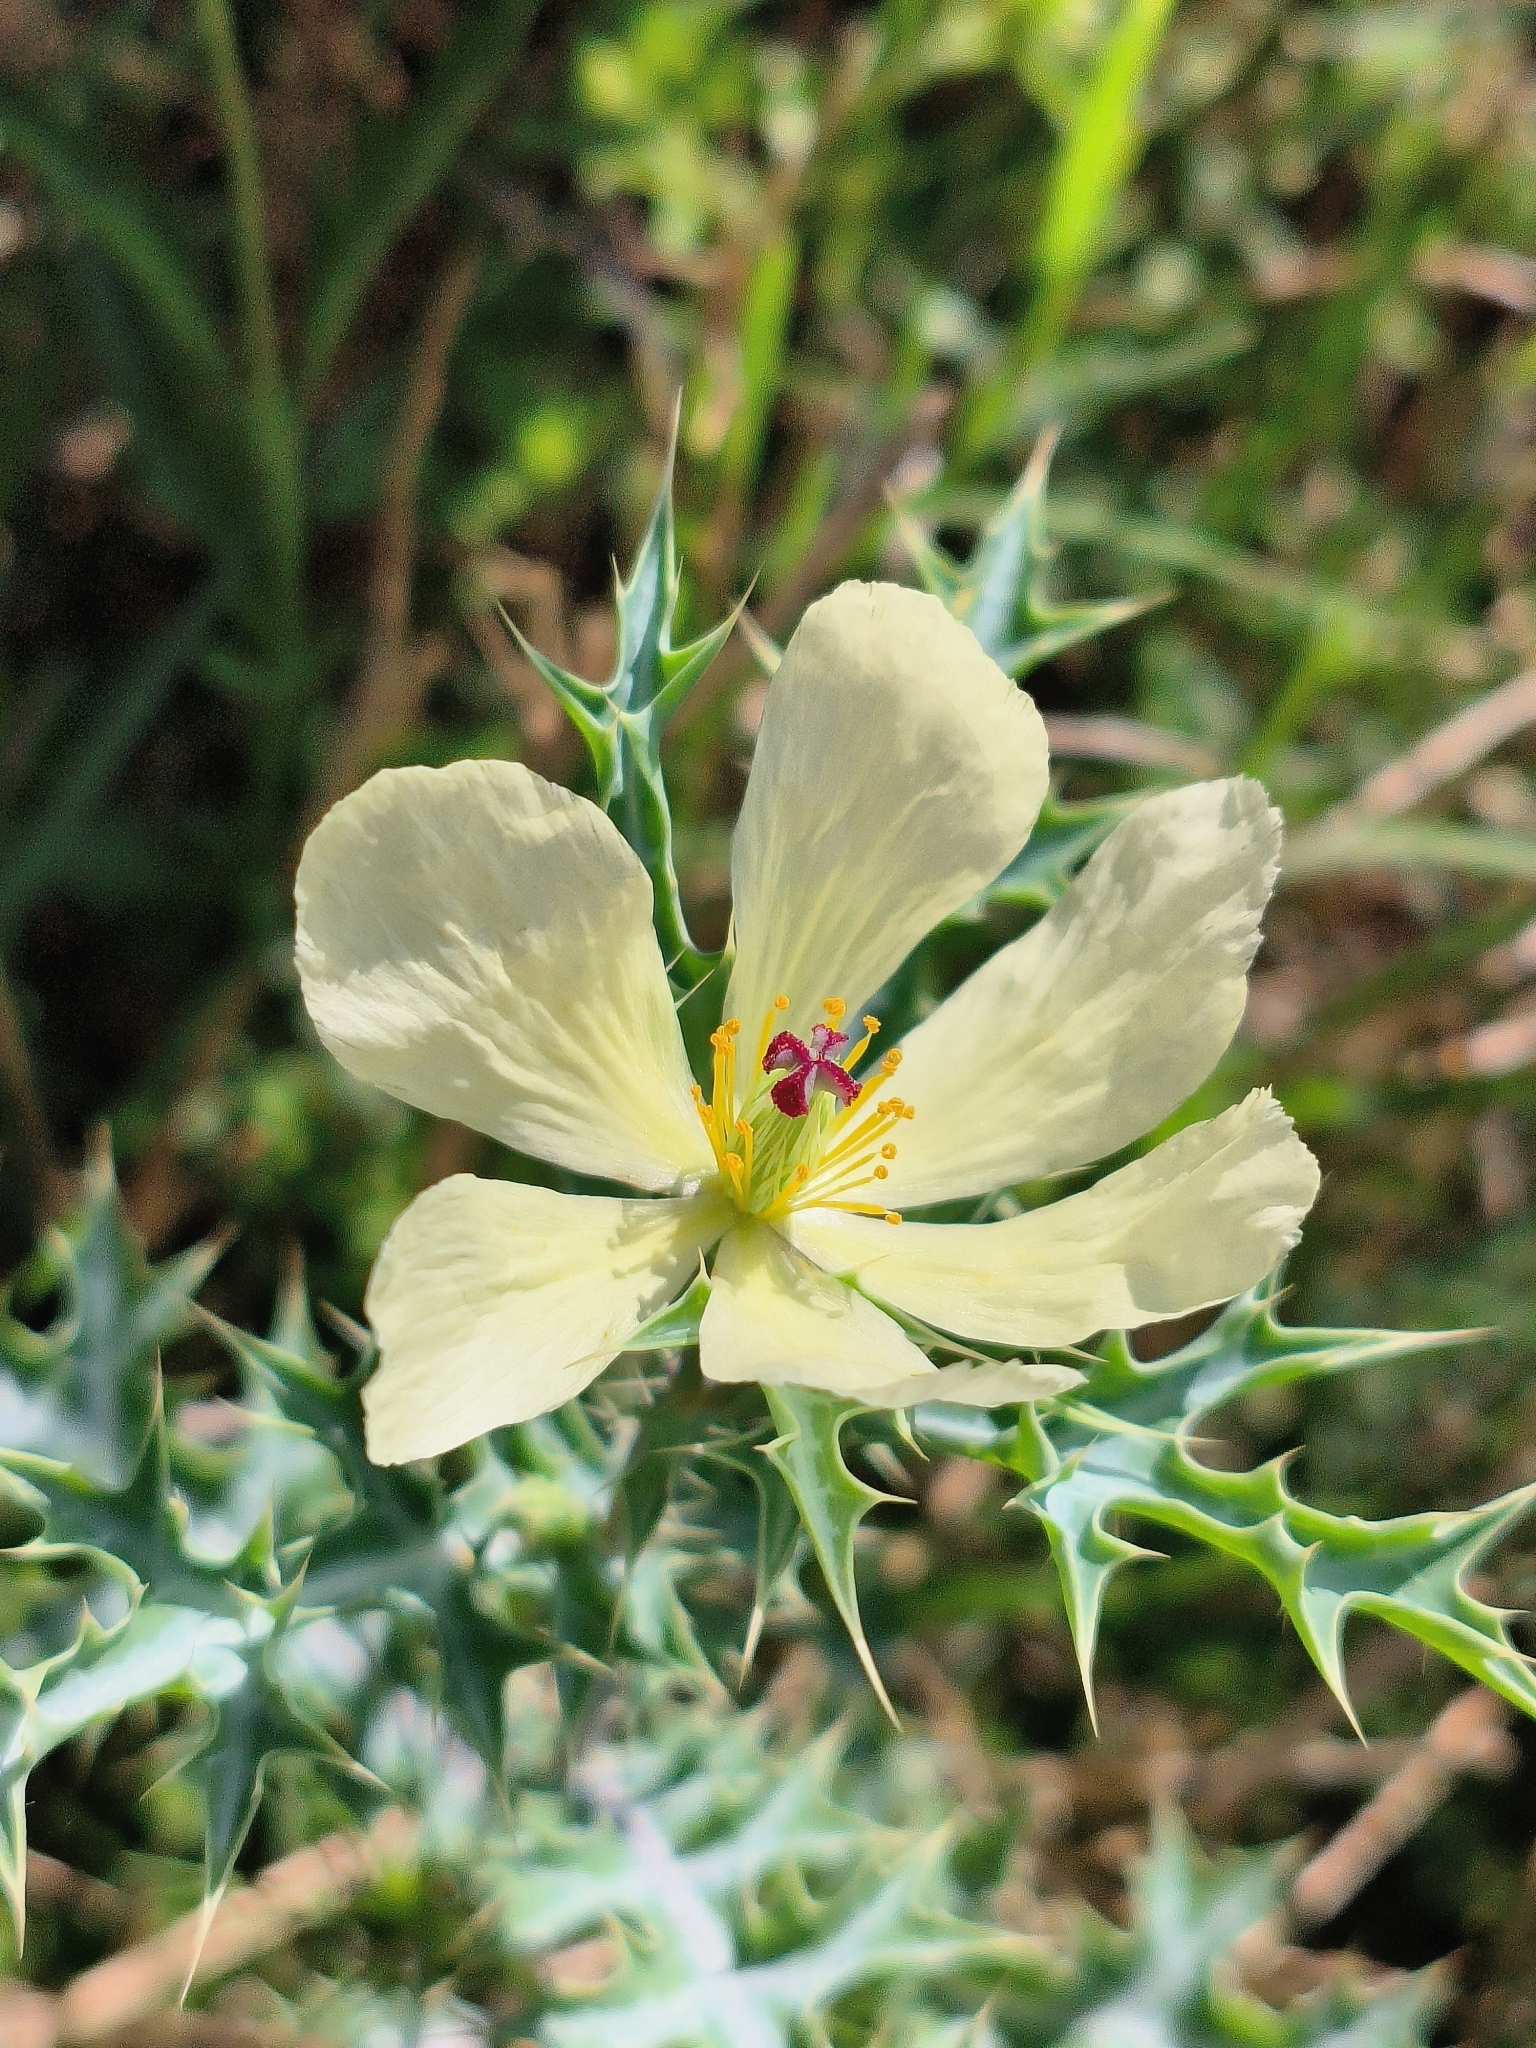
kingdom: Plantae
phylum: Tracheophyta
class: Magnoliopsida
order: Ranunculales
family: Papaveraceae
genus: Argemone
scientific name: Argemone ochroleuca
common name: White-flower mexican-poppy
